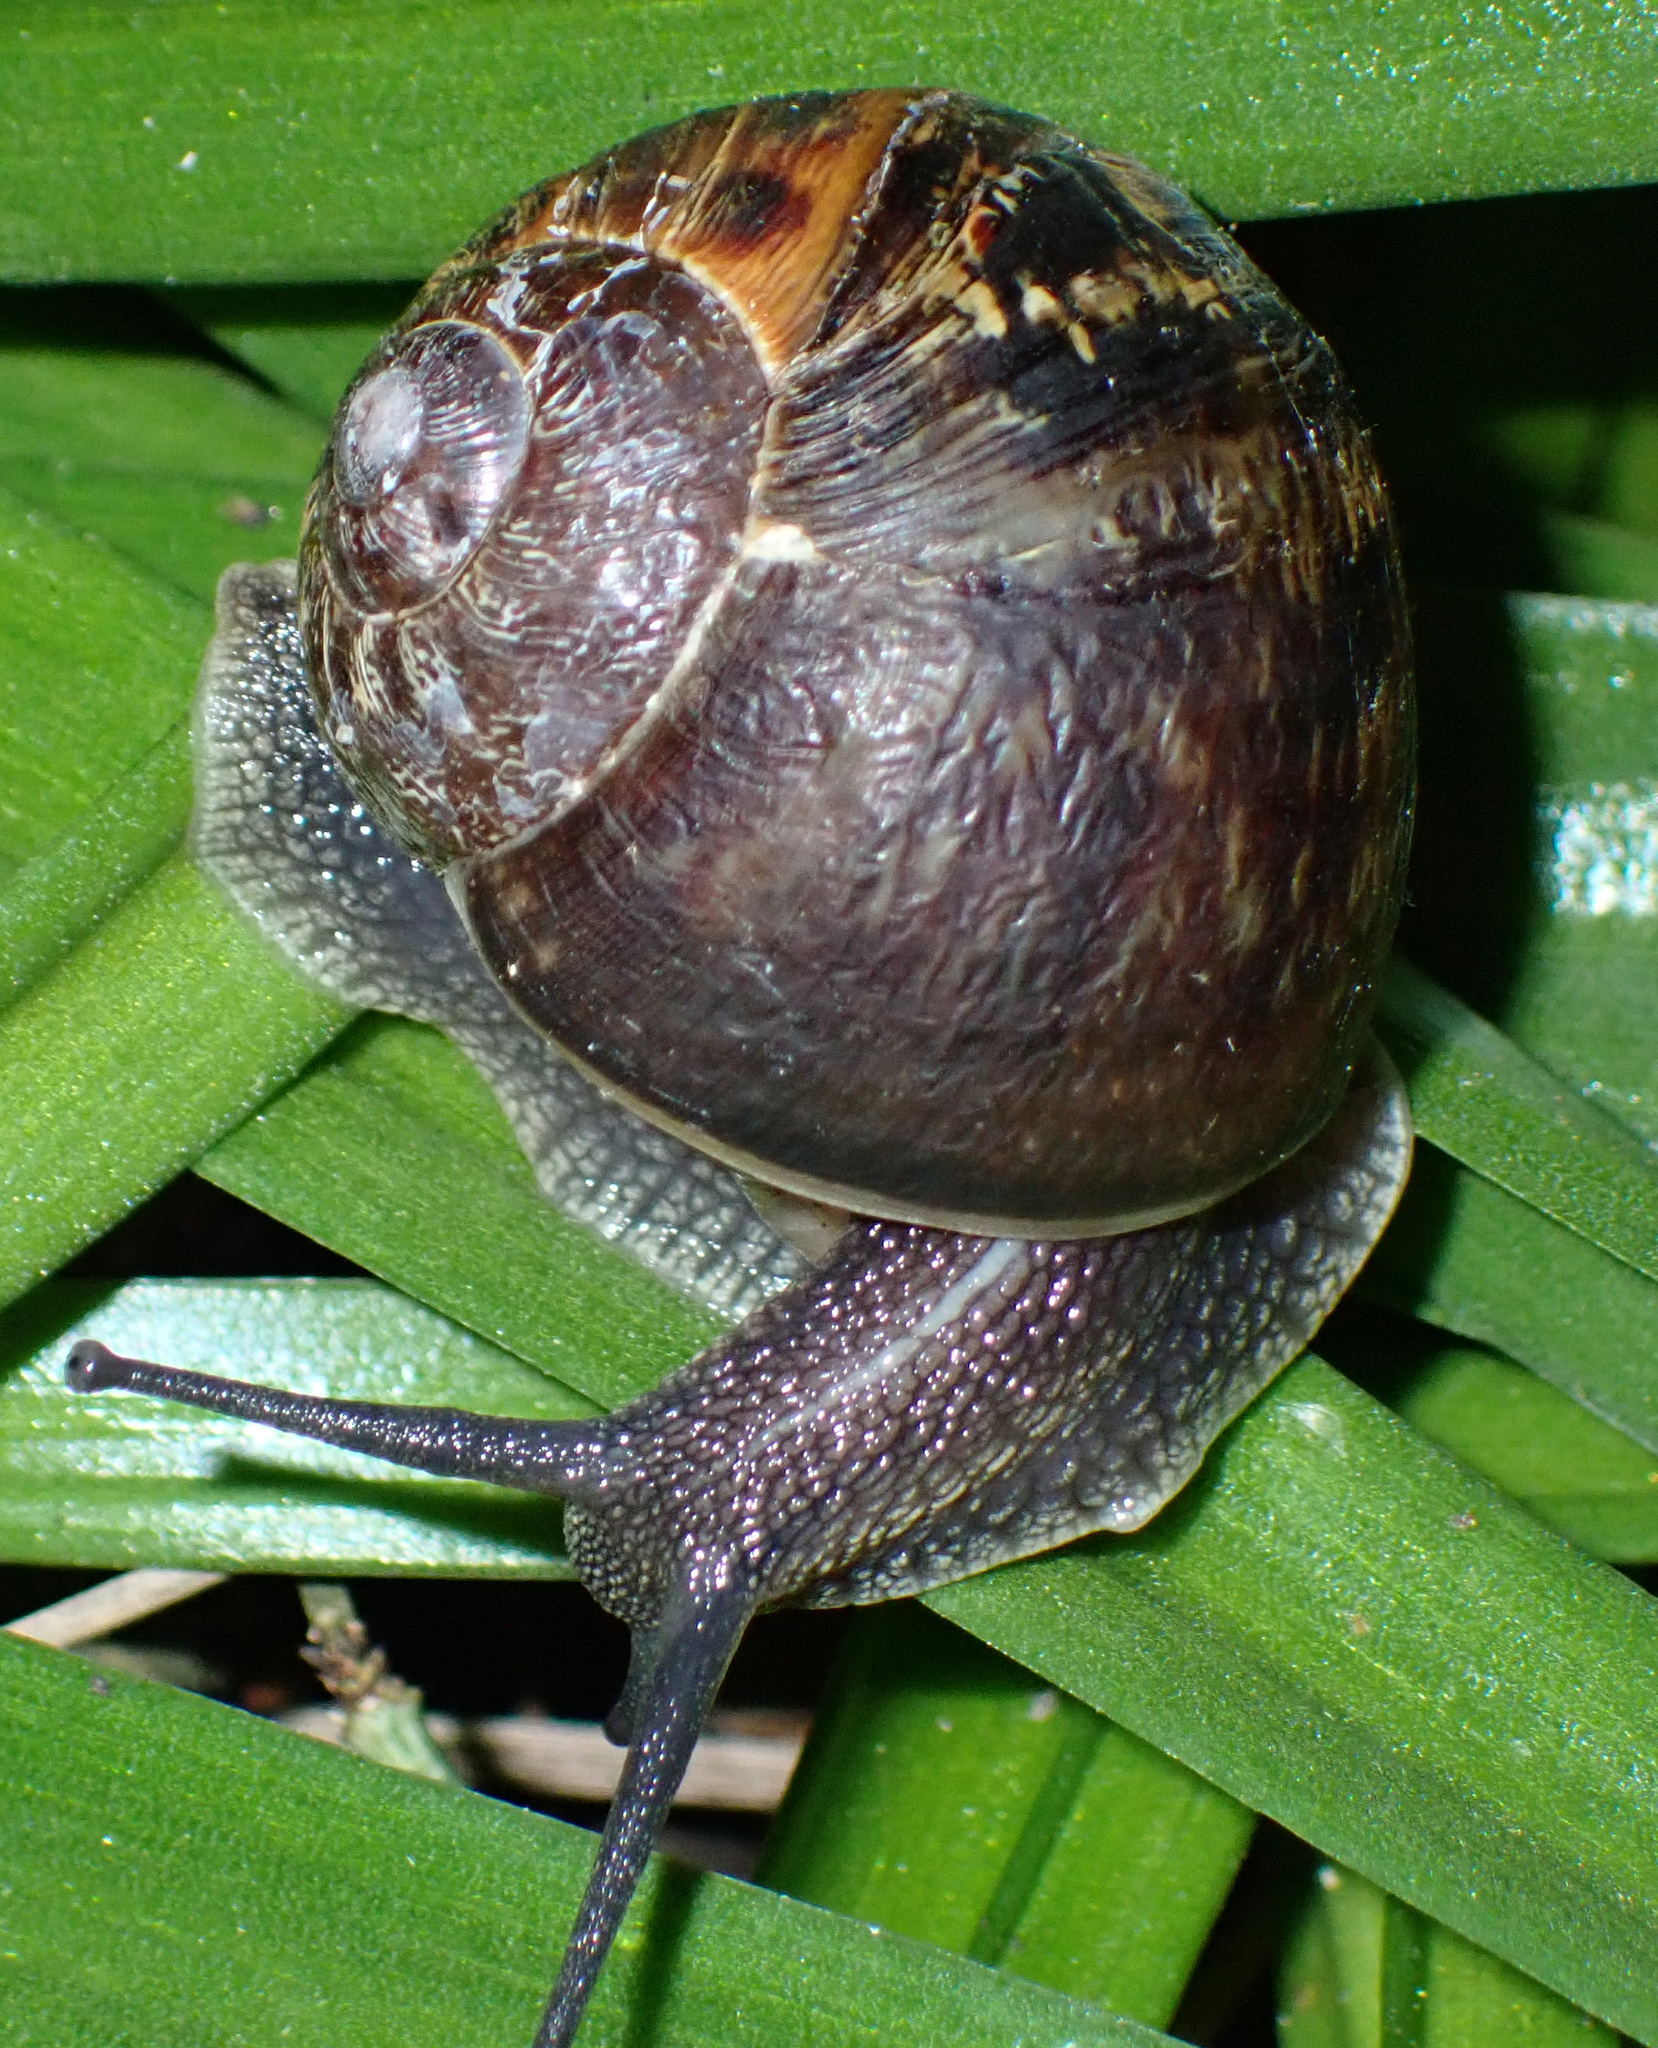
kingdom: Animalia
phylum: Mollusca
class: Gastropoda
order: Stylommatophora
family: Helicidae
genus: Cornu
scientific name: Cornu aspersum
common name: Brown garden snail
